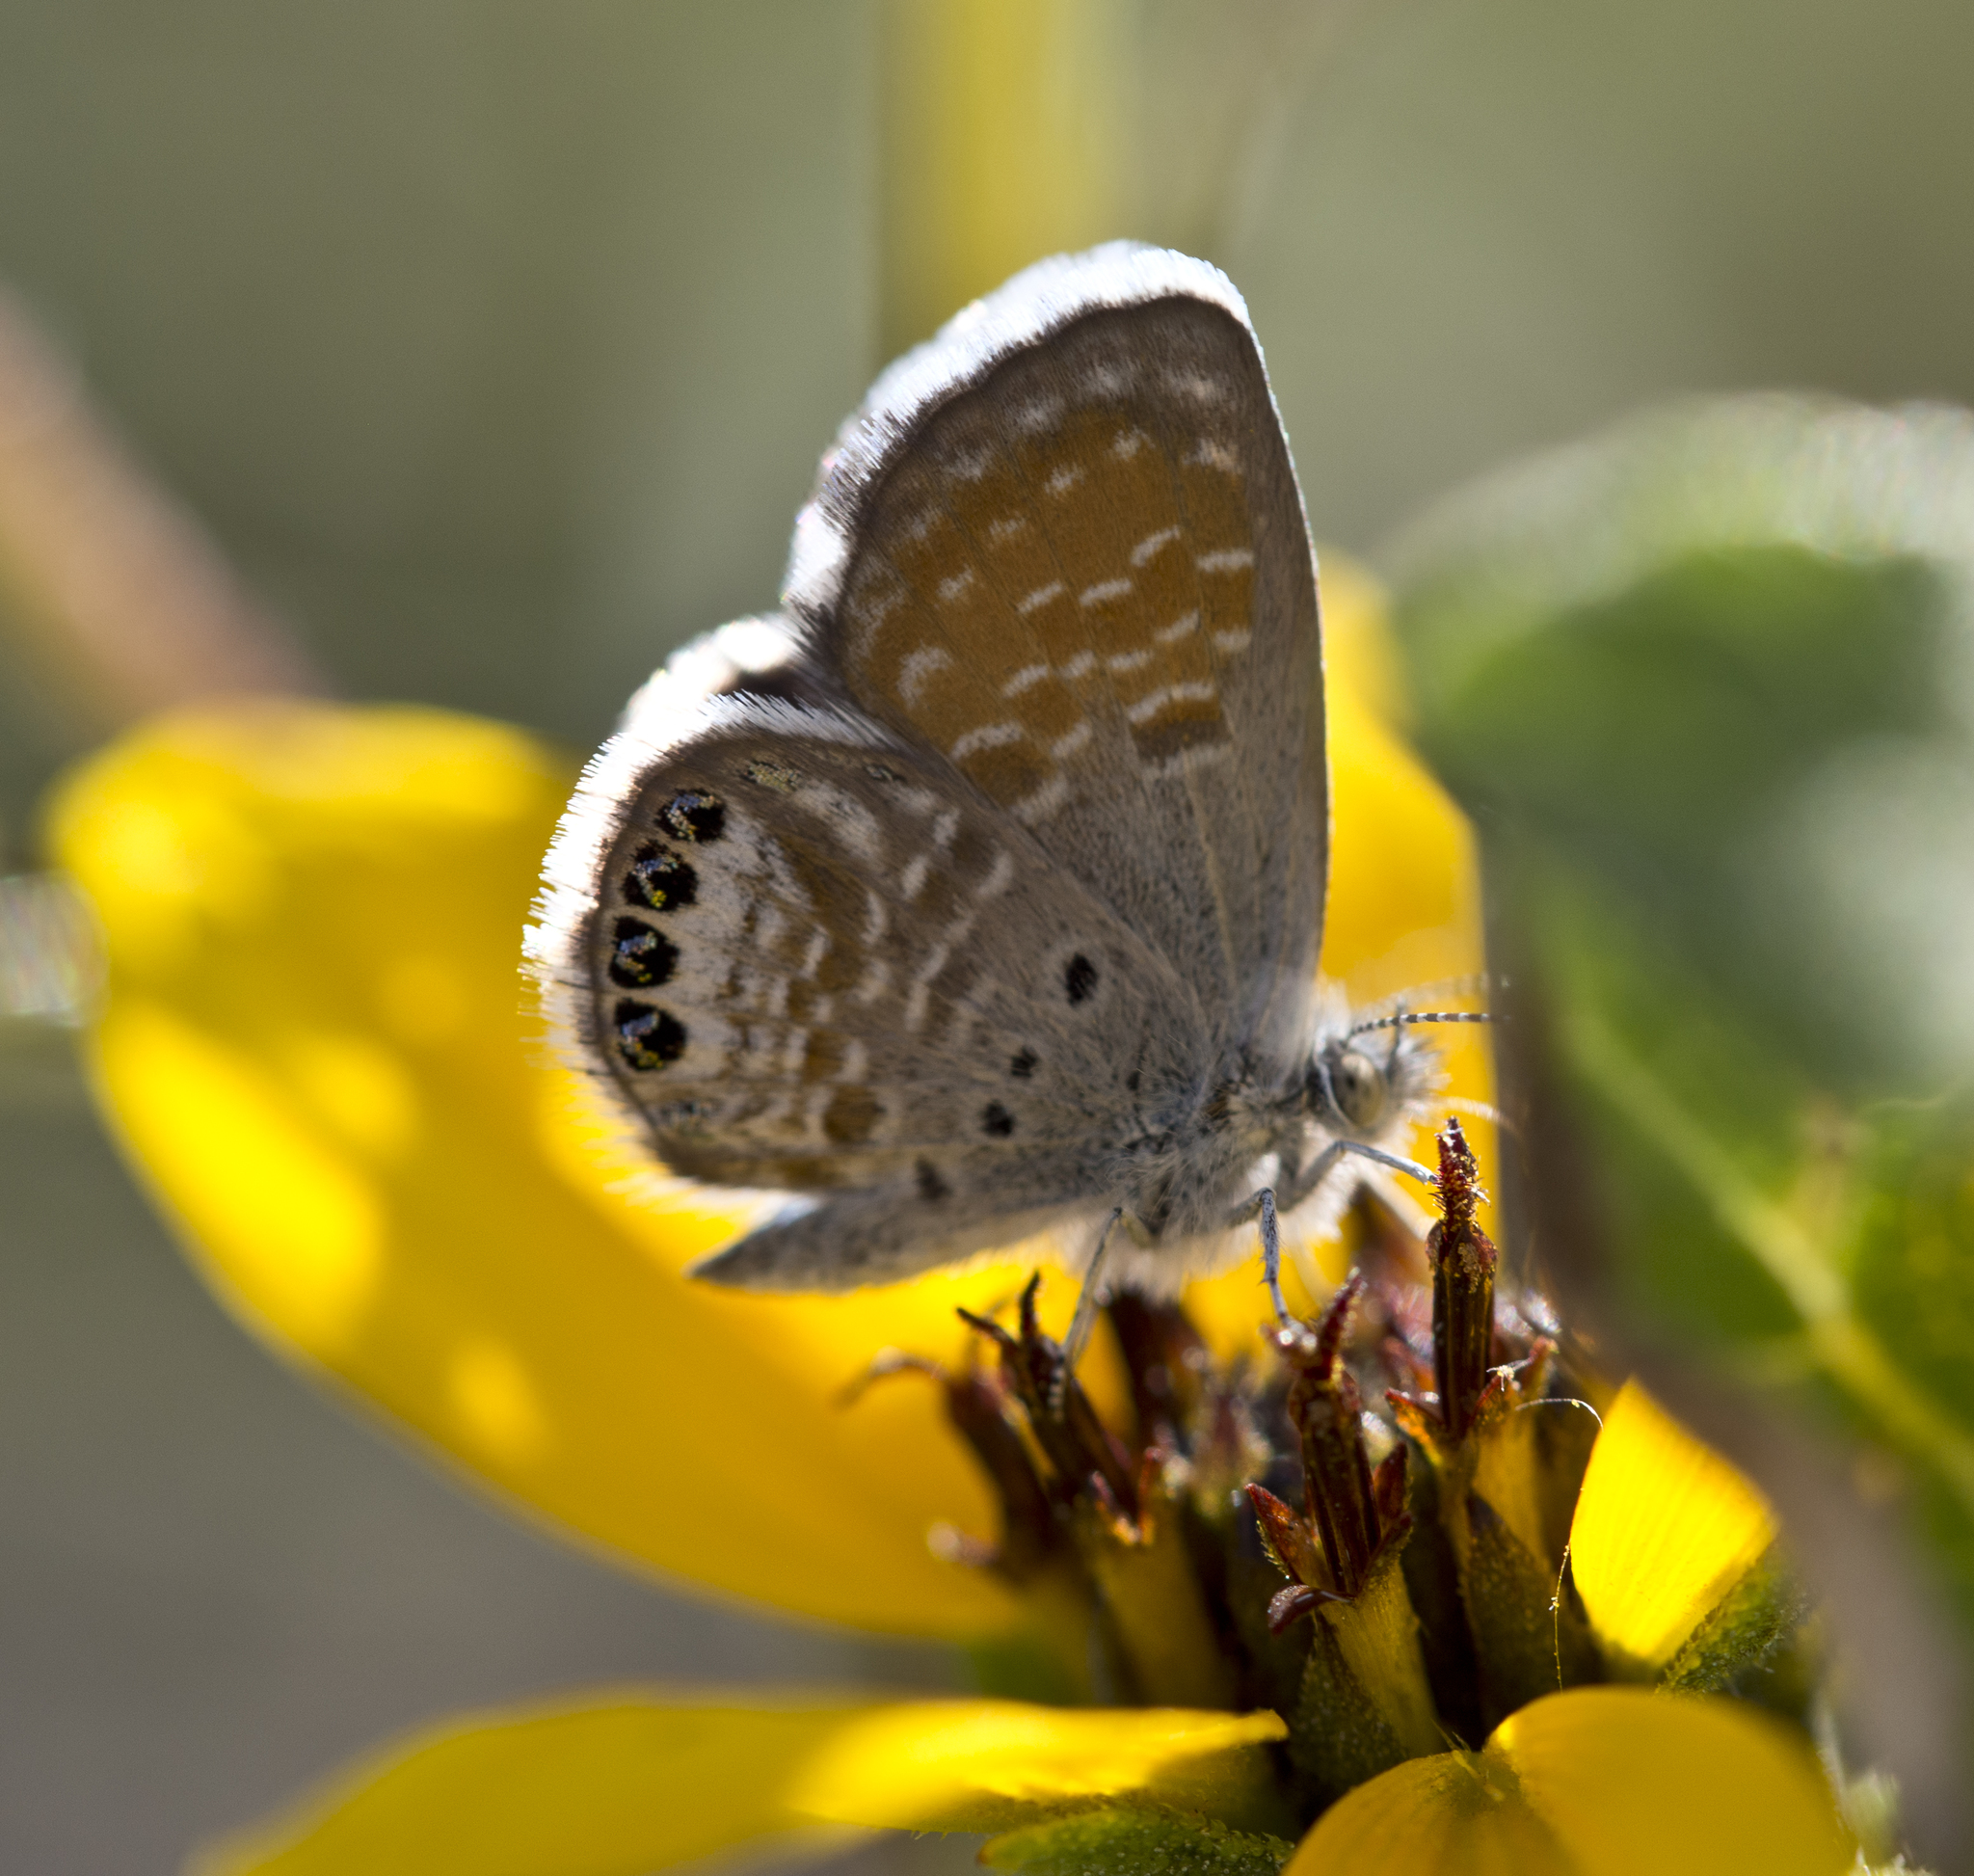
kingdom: Animalia
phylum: Arthropoda
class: Insecta
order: Lepidoptera
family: Lycaenidae
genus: Brephidium
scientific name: Brephidium exilis
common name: Pygmy blue
